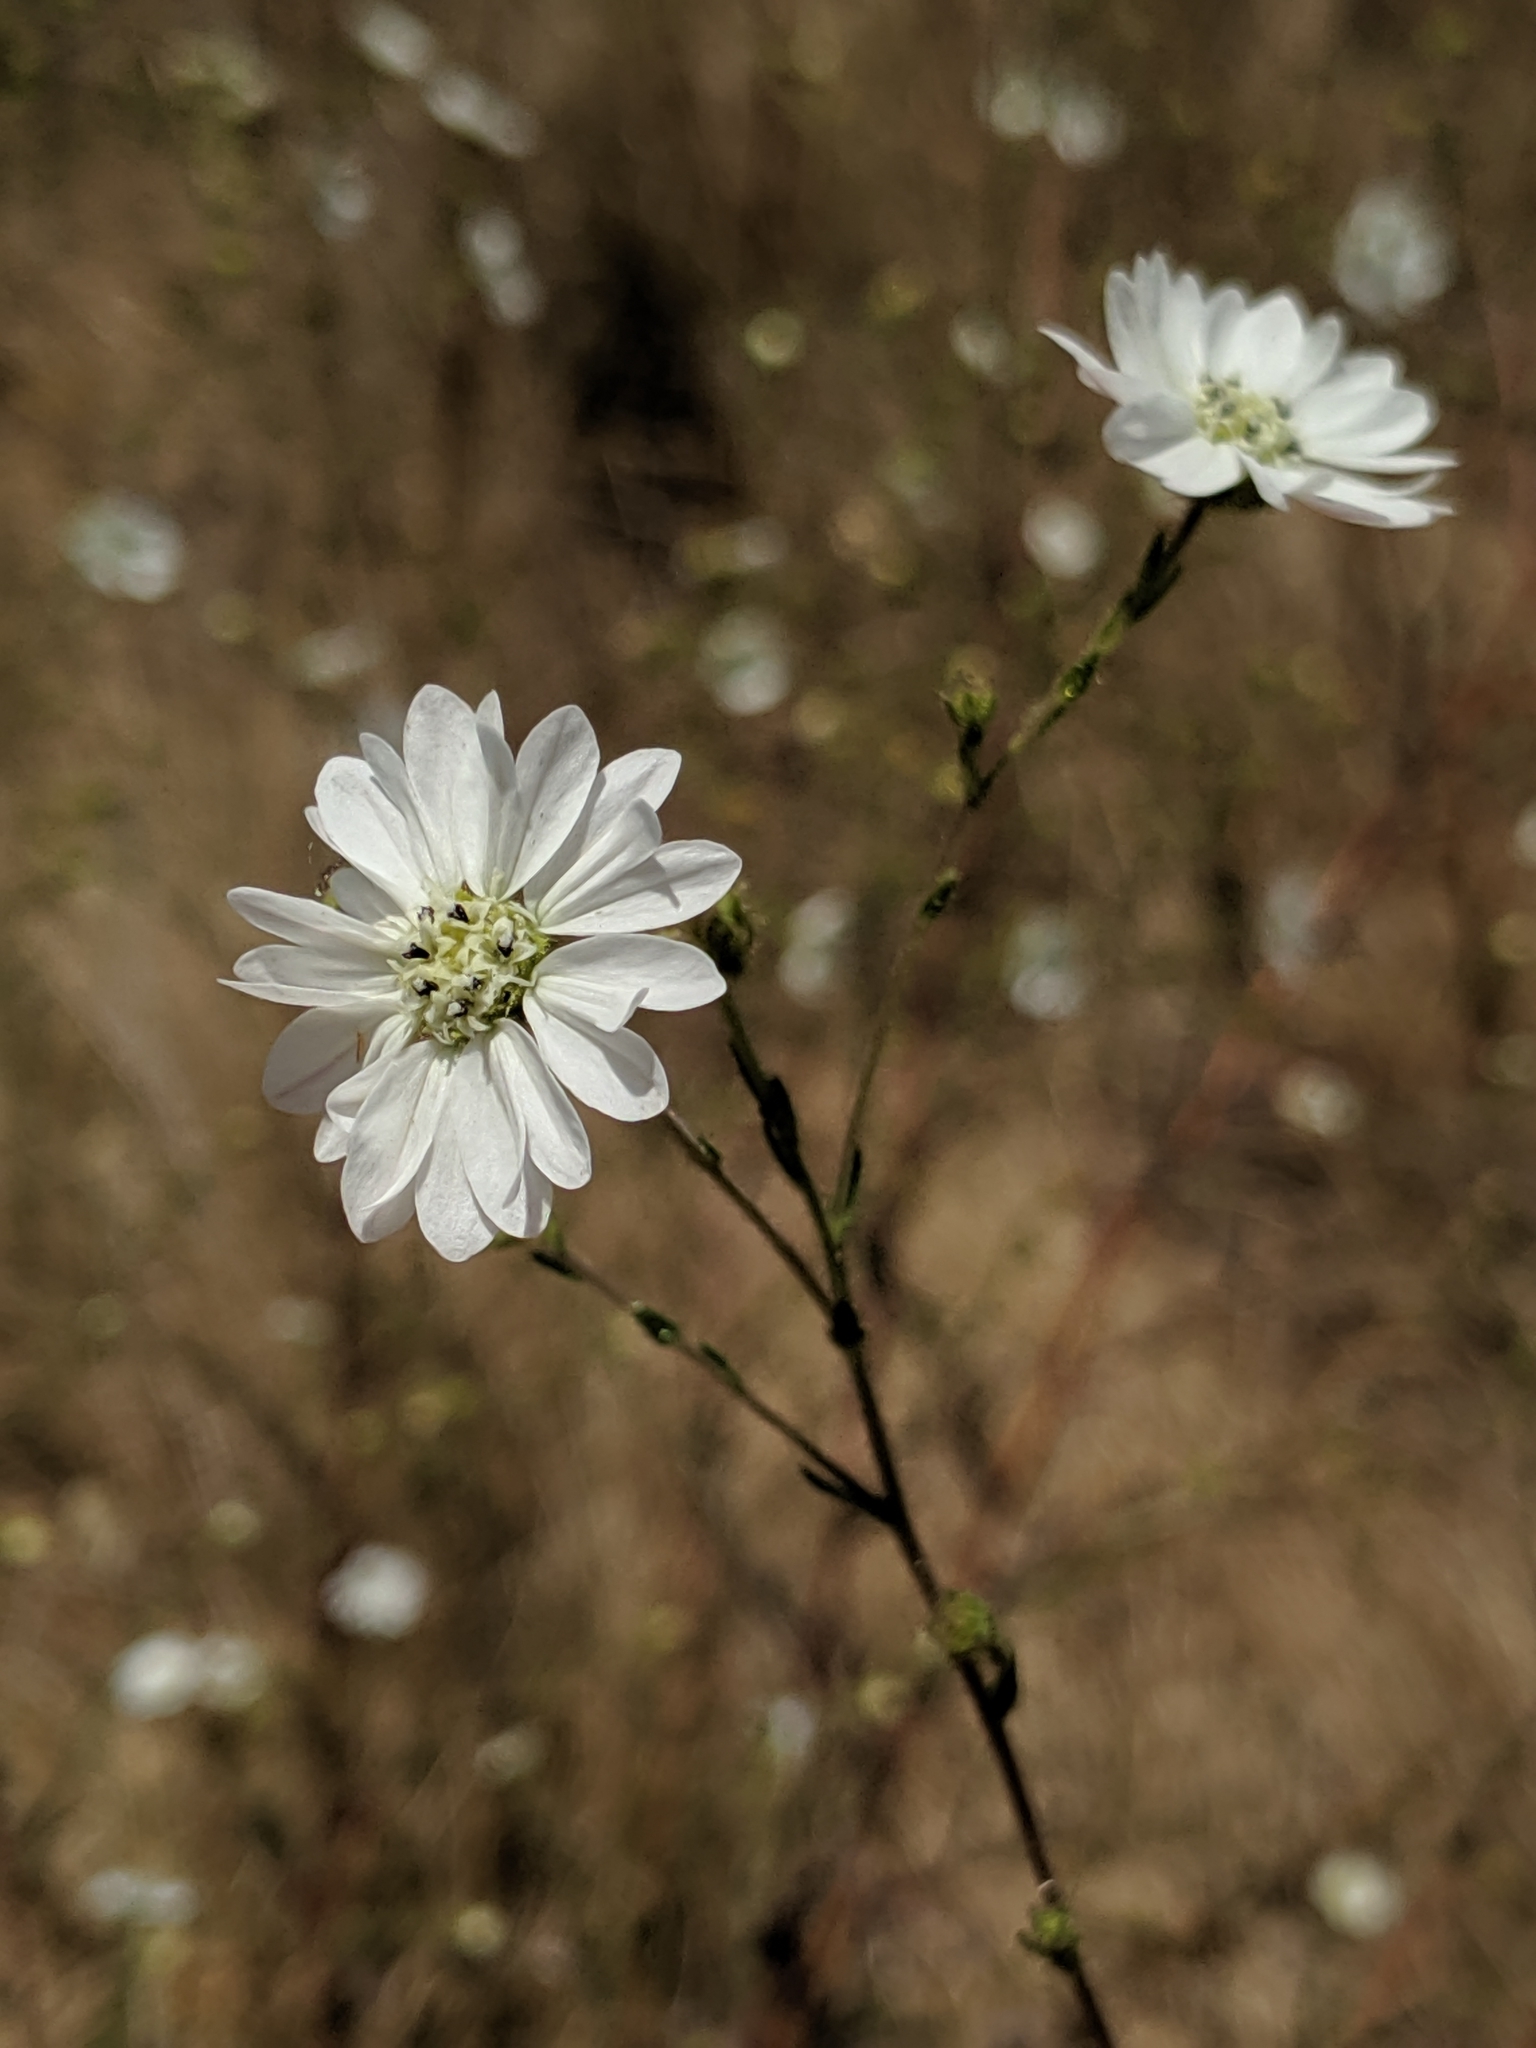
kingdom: Plantae
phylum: Tracheophyta
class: Magnoliopsida
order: Asterales
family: Asteraceae
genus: Hemizonia
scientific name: Hemizonia congesta
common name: Hayfield tarweed
